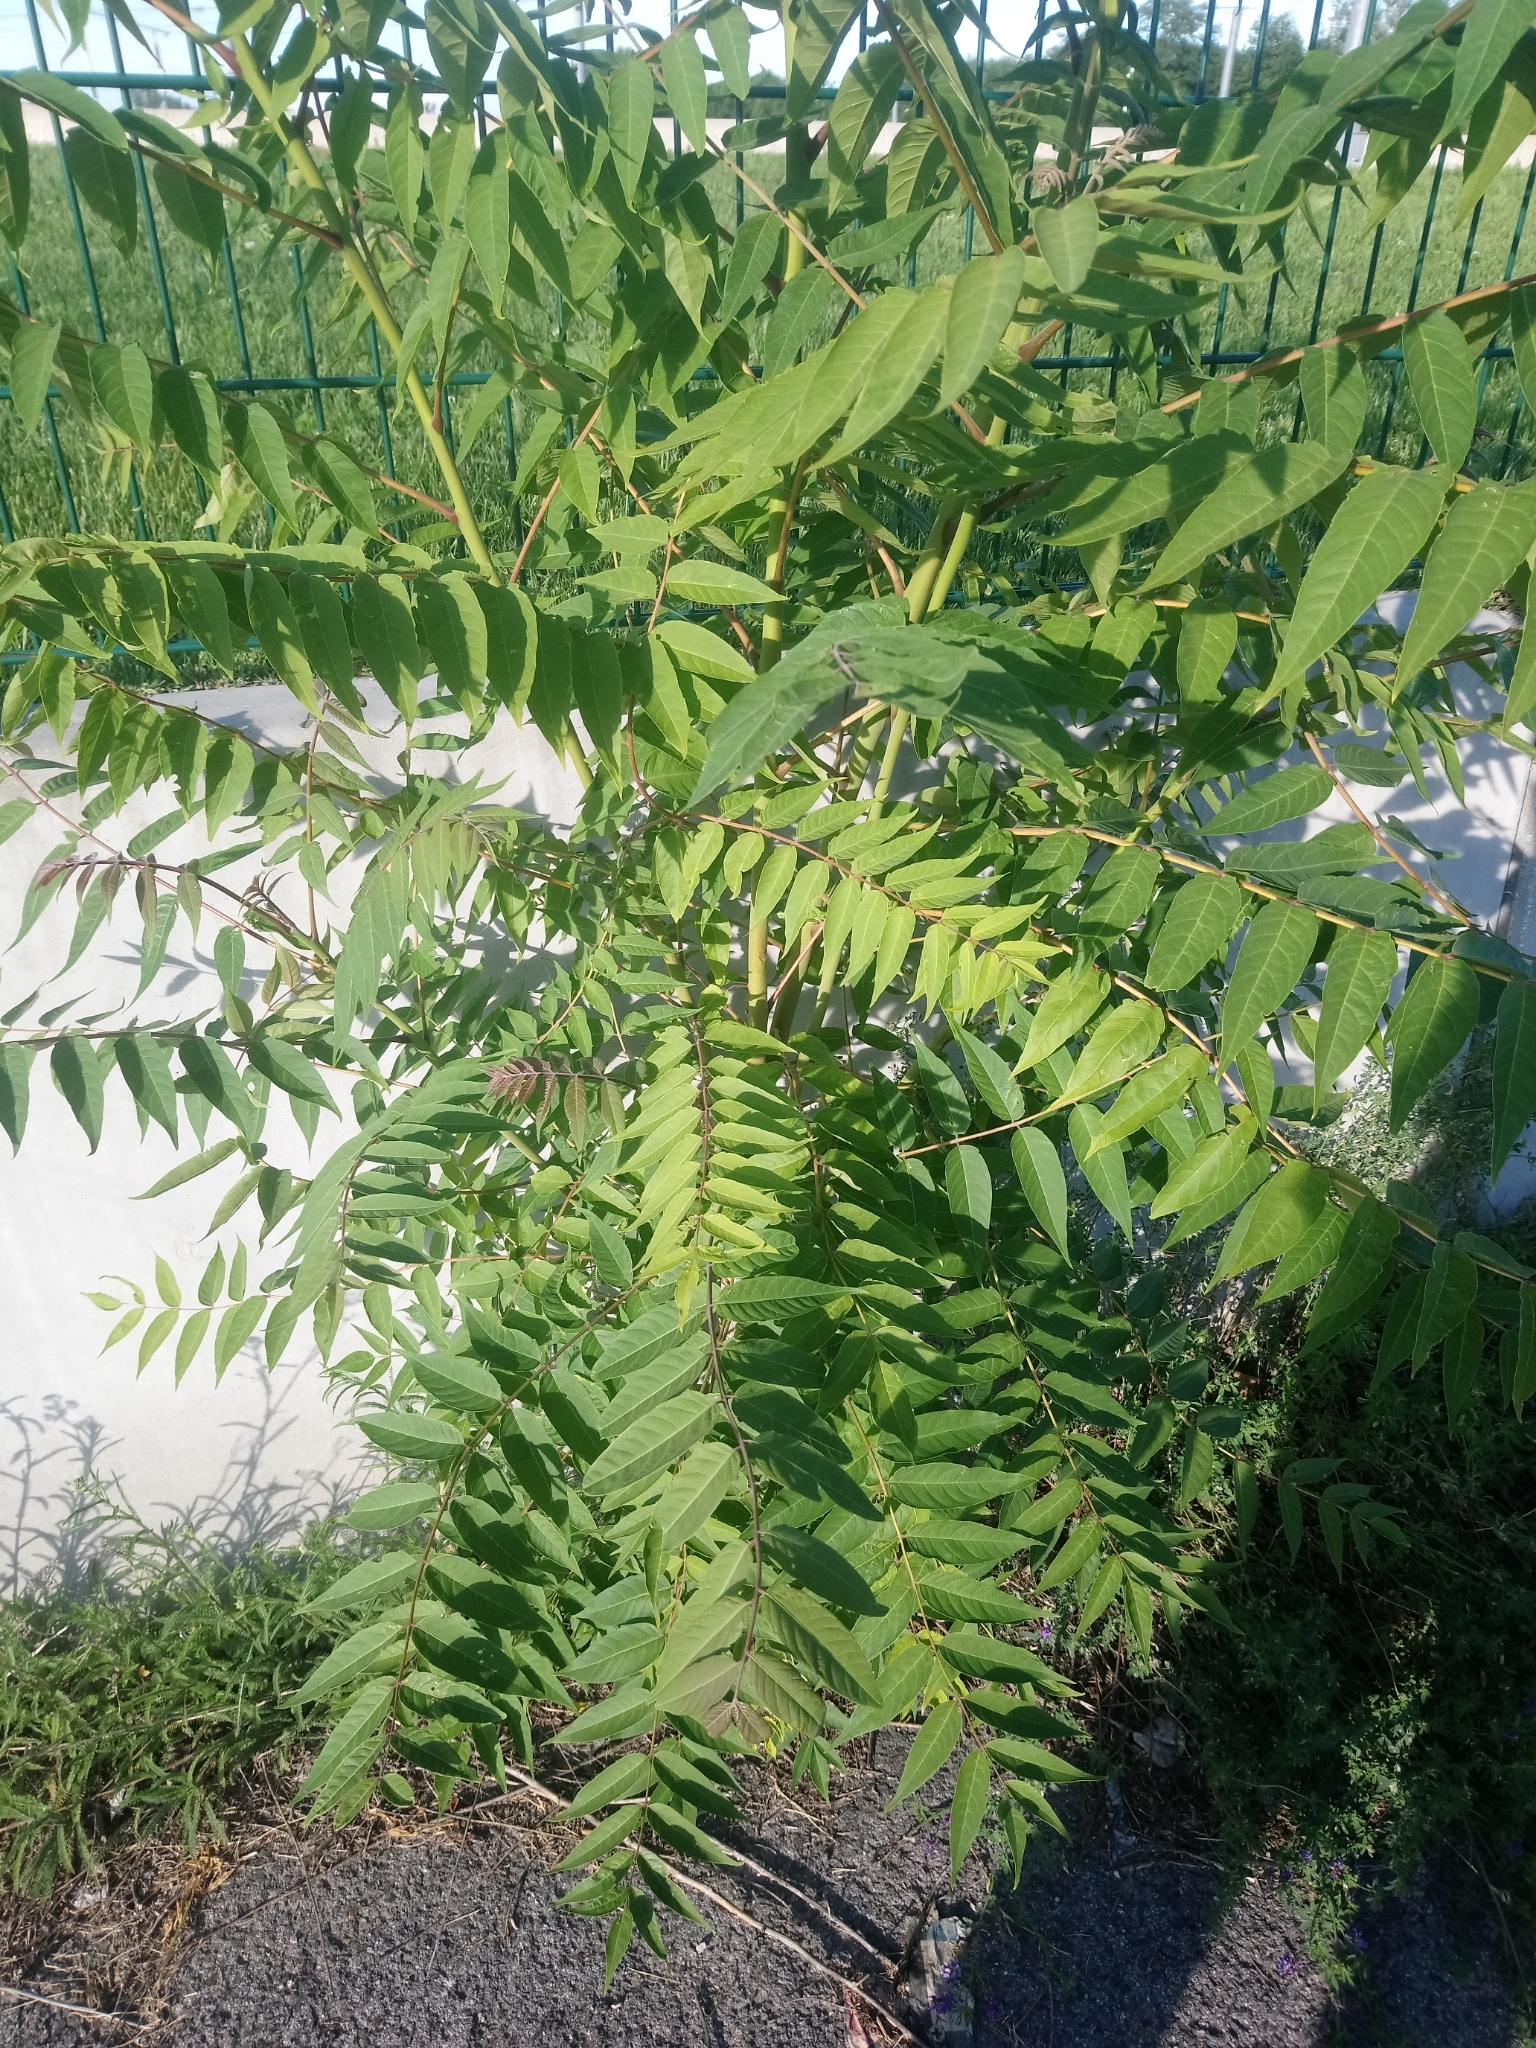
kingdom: Plantae
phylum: Tracheophyta
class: Magnoliopsida
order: Sapindales
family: Simaroubaceae
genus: Ailanthus
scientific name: Ailanthus altissima
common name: Tree-of-heaven
